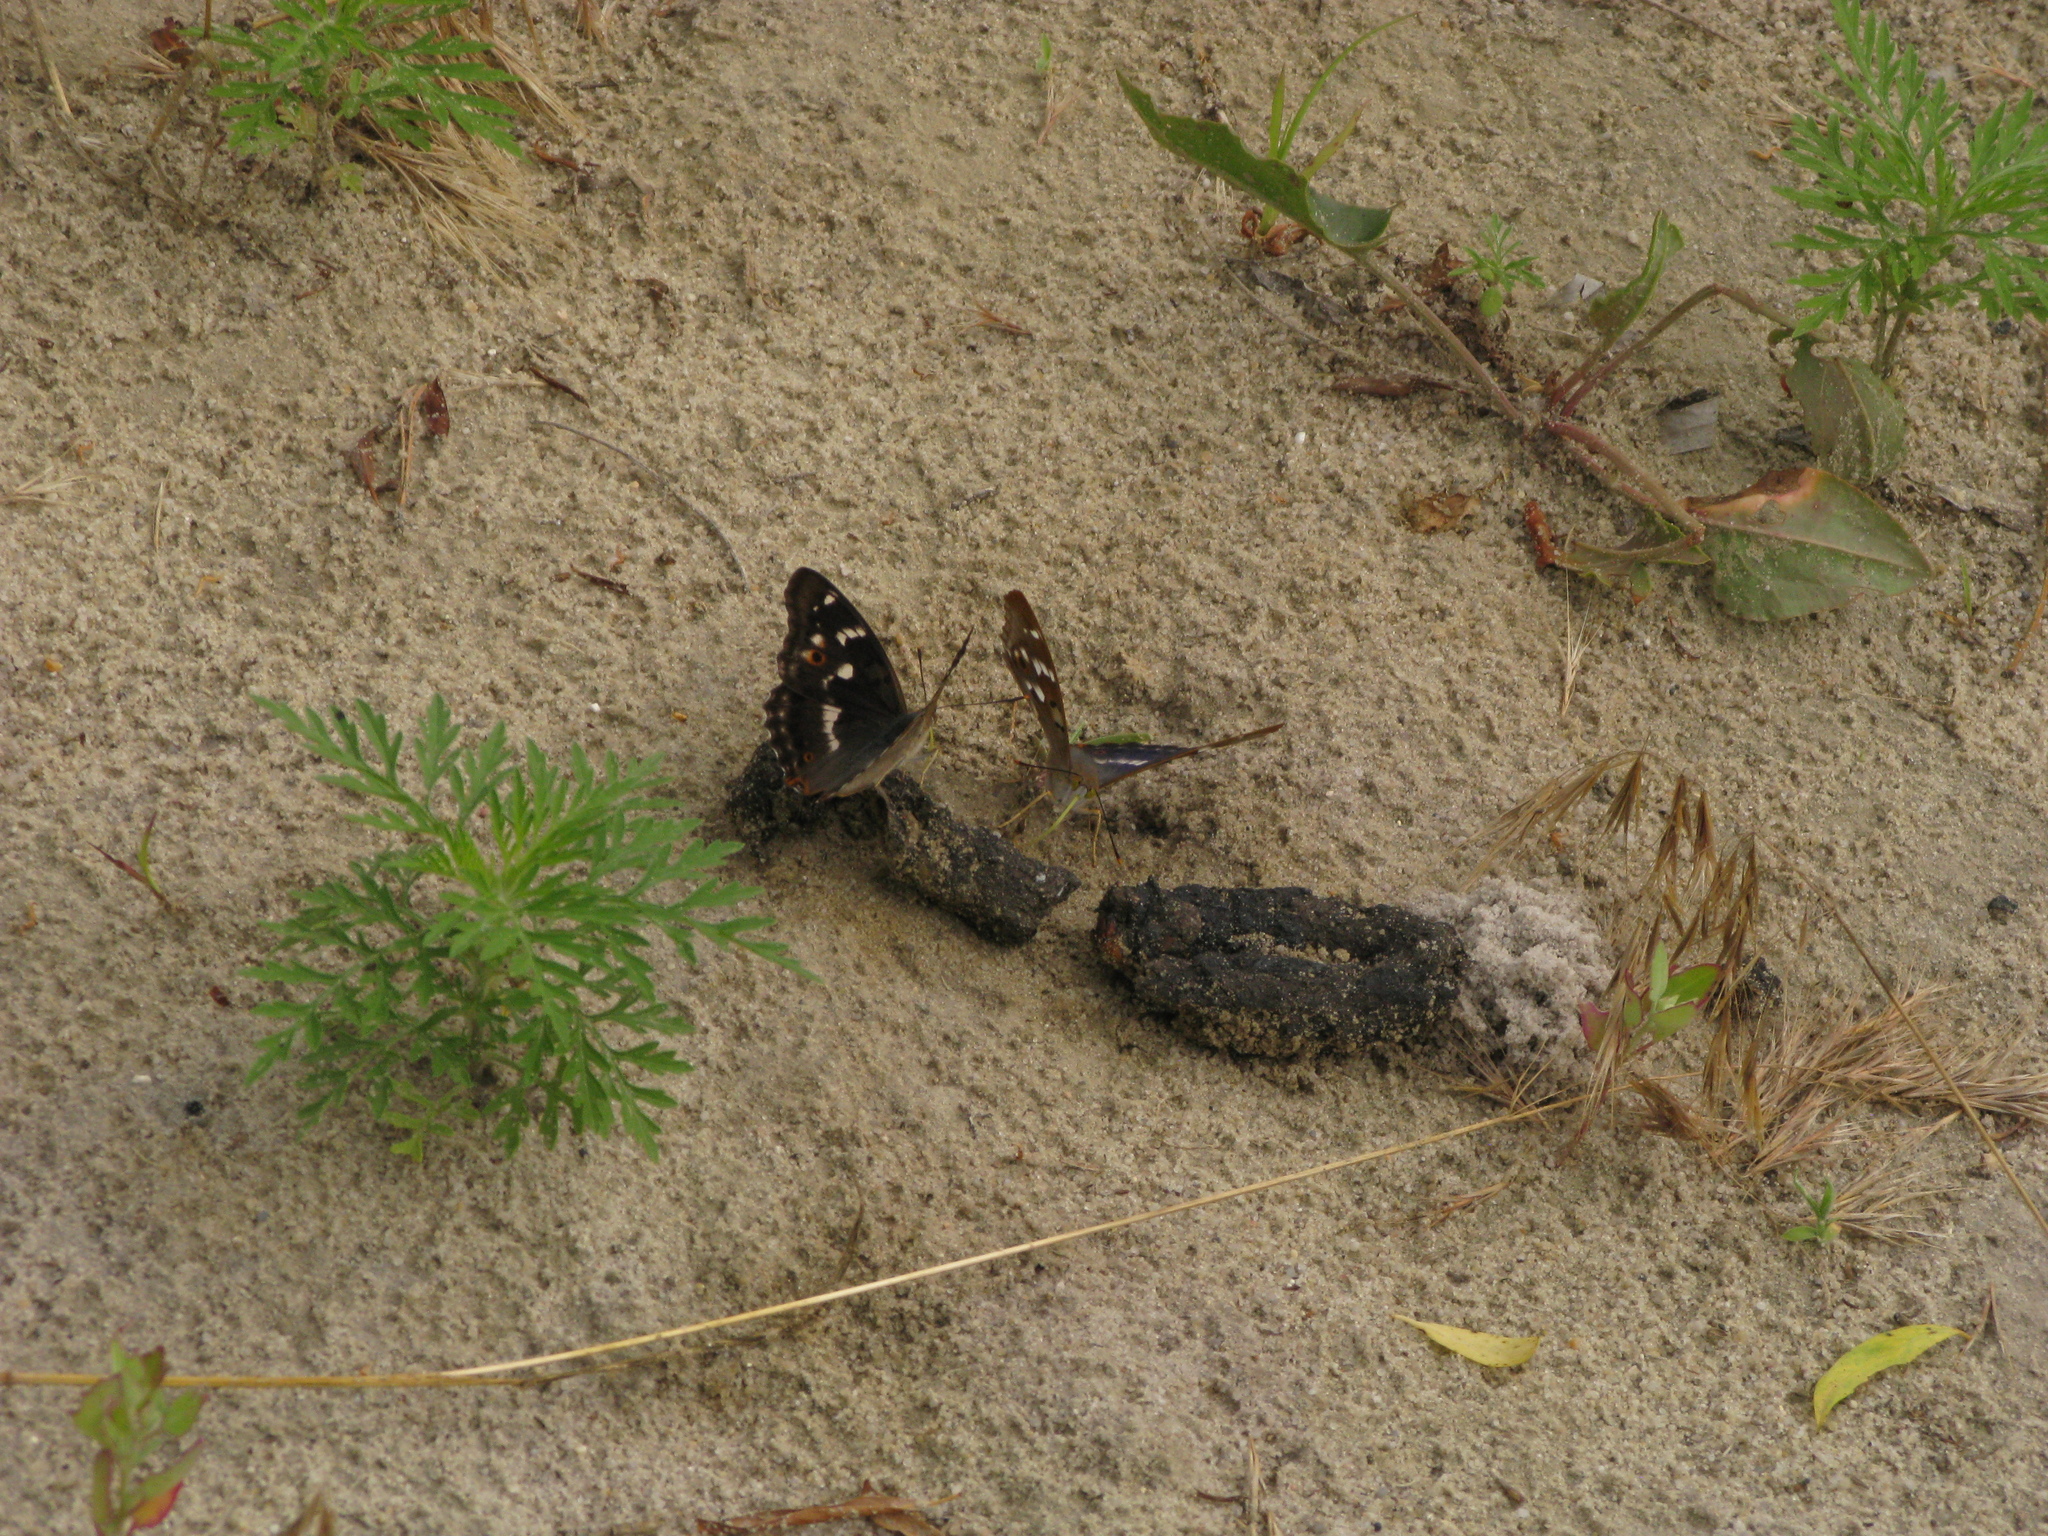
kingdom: Animalia
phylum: Arthropoda
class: Insecta
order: Lepidoptera
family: Nymphalidae
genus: Apatura
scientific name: Apatura ilia
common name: Lesser purple emperor
